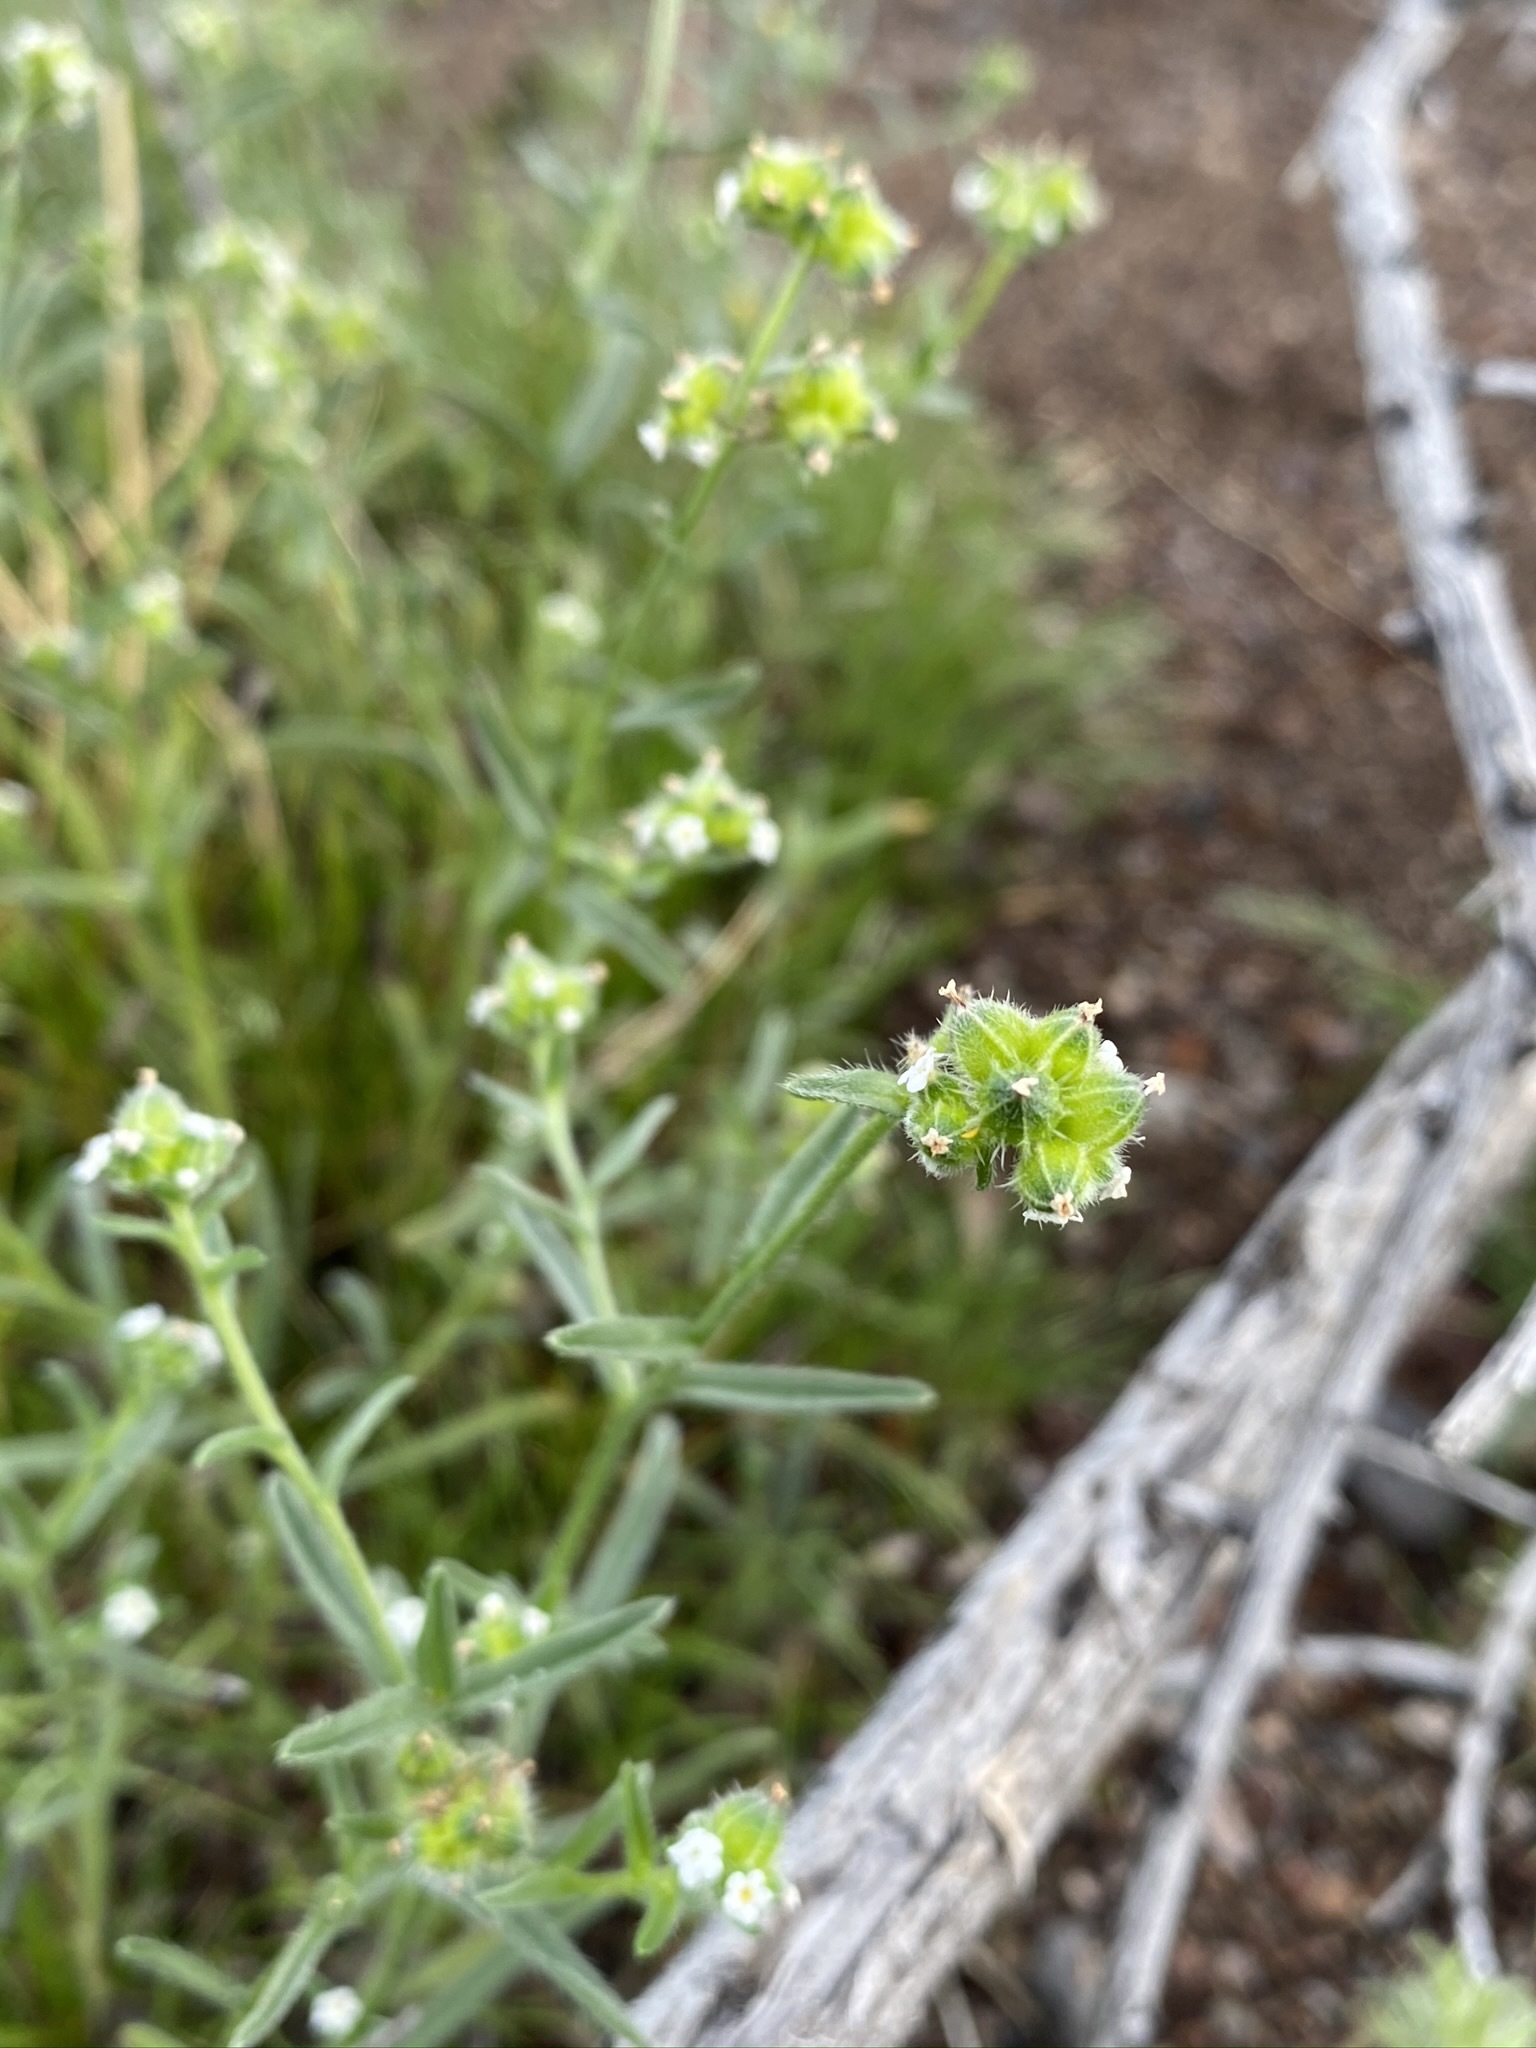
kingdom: Plantae
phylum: Tracheophyta
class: Magnoliopsida
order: Boraginales
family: Boraginaceae
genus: Cryptantha
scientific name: Cryptantha pterocarya
